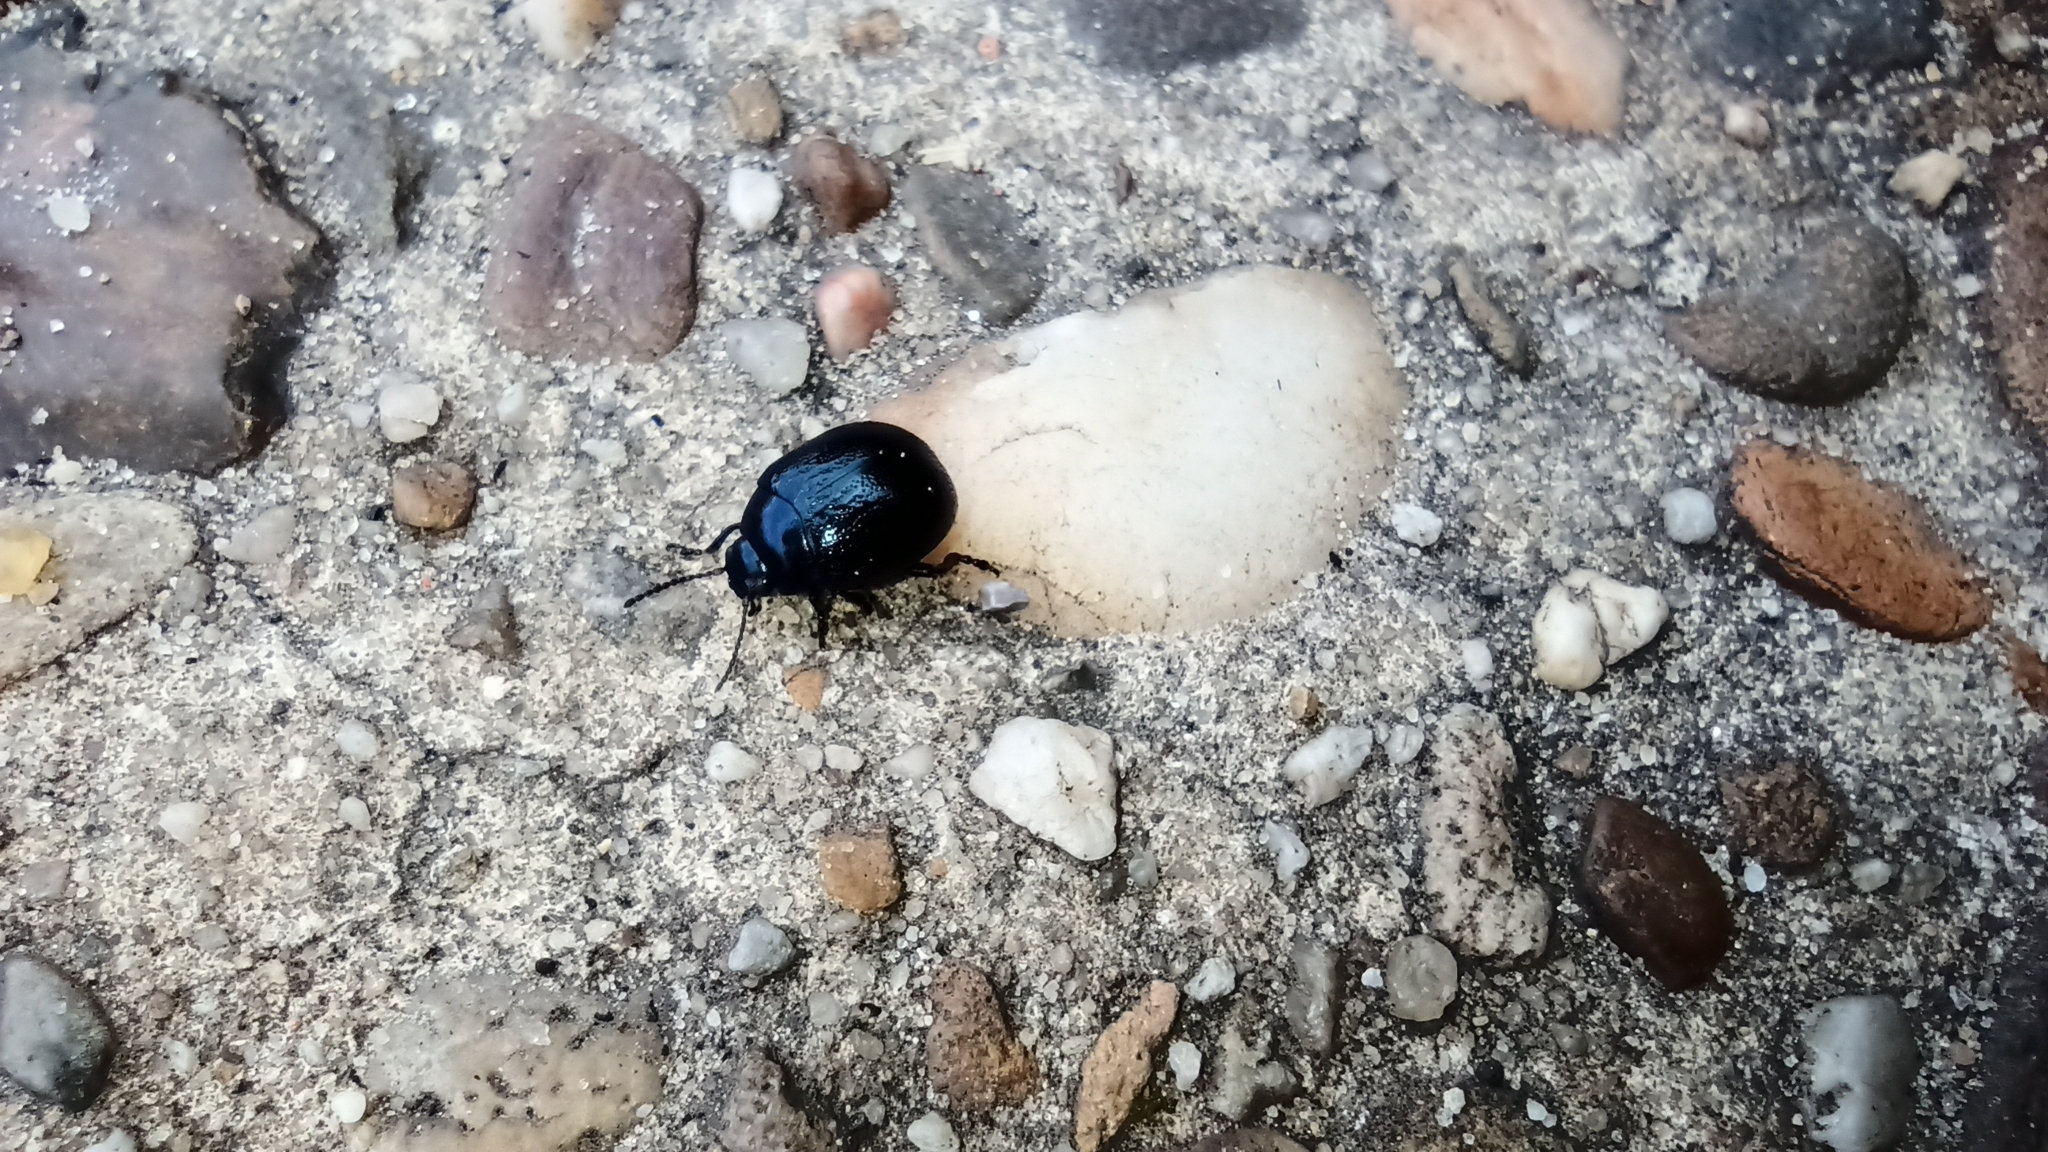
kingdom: Animalia
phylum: Arthropoda
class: Insecta
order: Coleoptera
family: Chrysomelidae
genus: Chrysolina
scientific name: Chrysolina haemoptera
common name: Plantain leaf beetle
